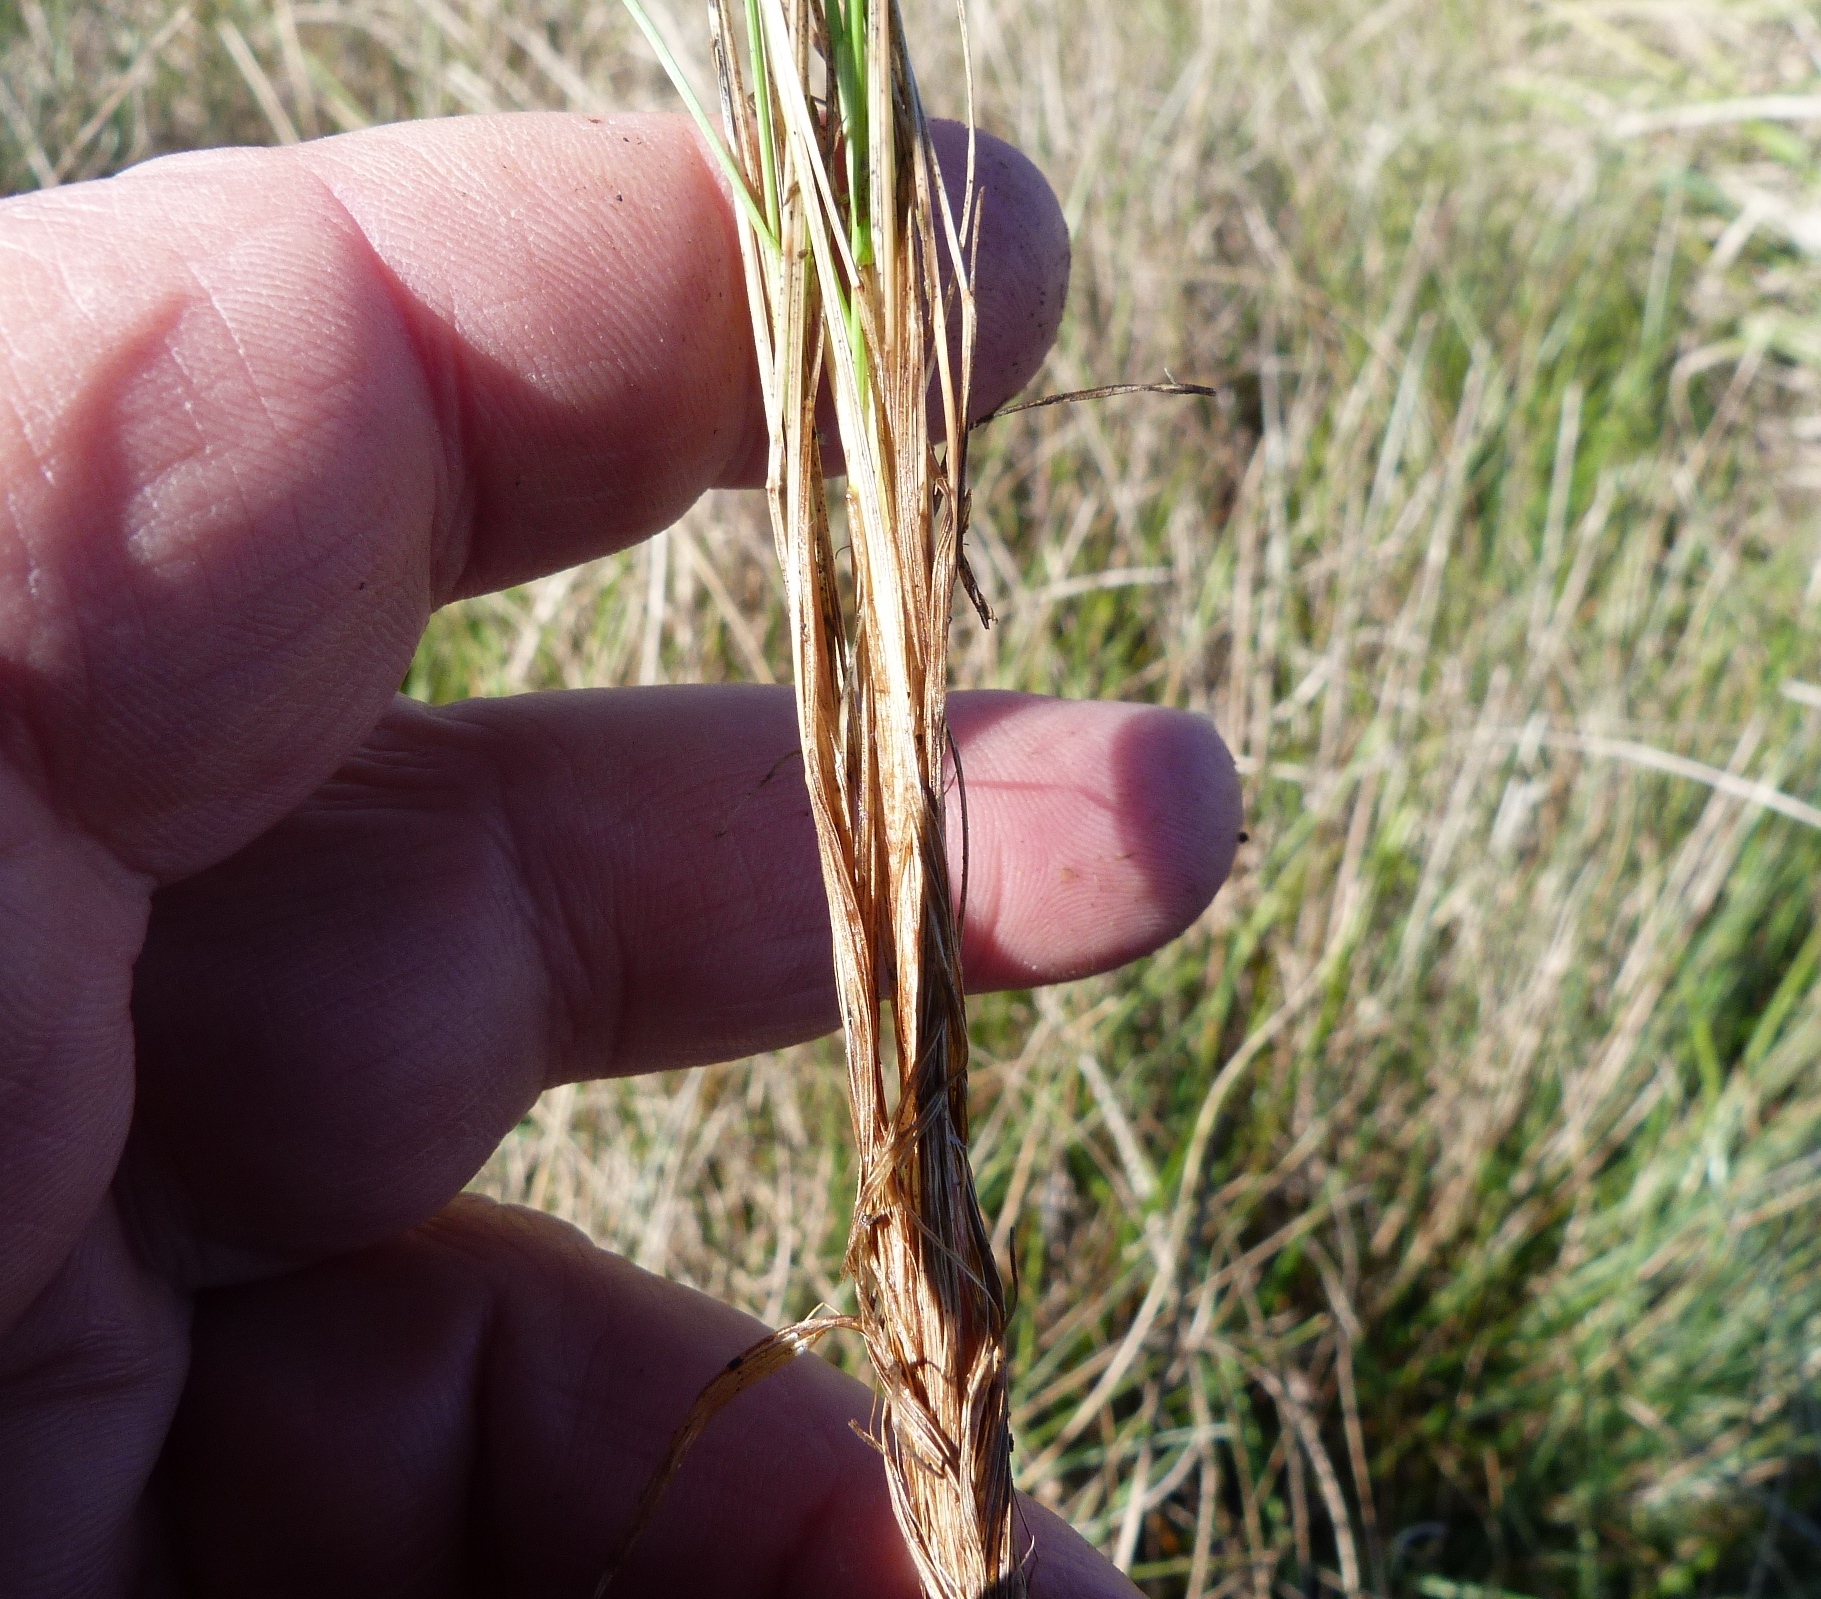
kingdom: Plantae
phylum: Tracheophyta
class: Liliopsida
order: Poales
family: Poaceae
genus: Festuca
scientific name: Festuca rubra
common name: Red fescue
